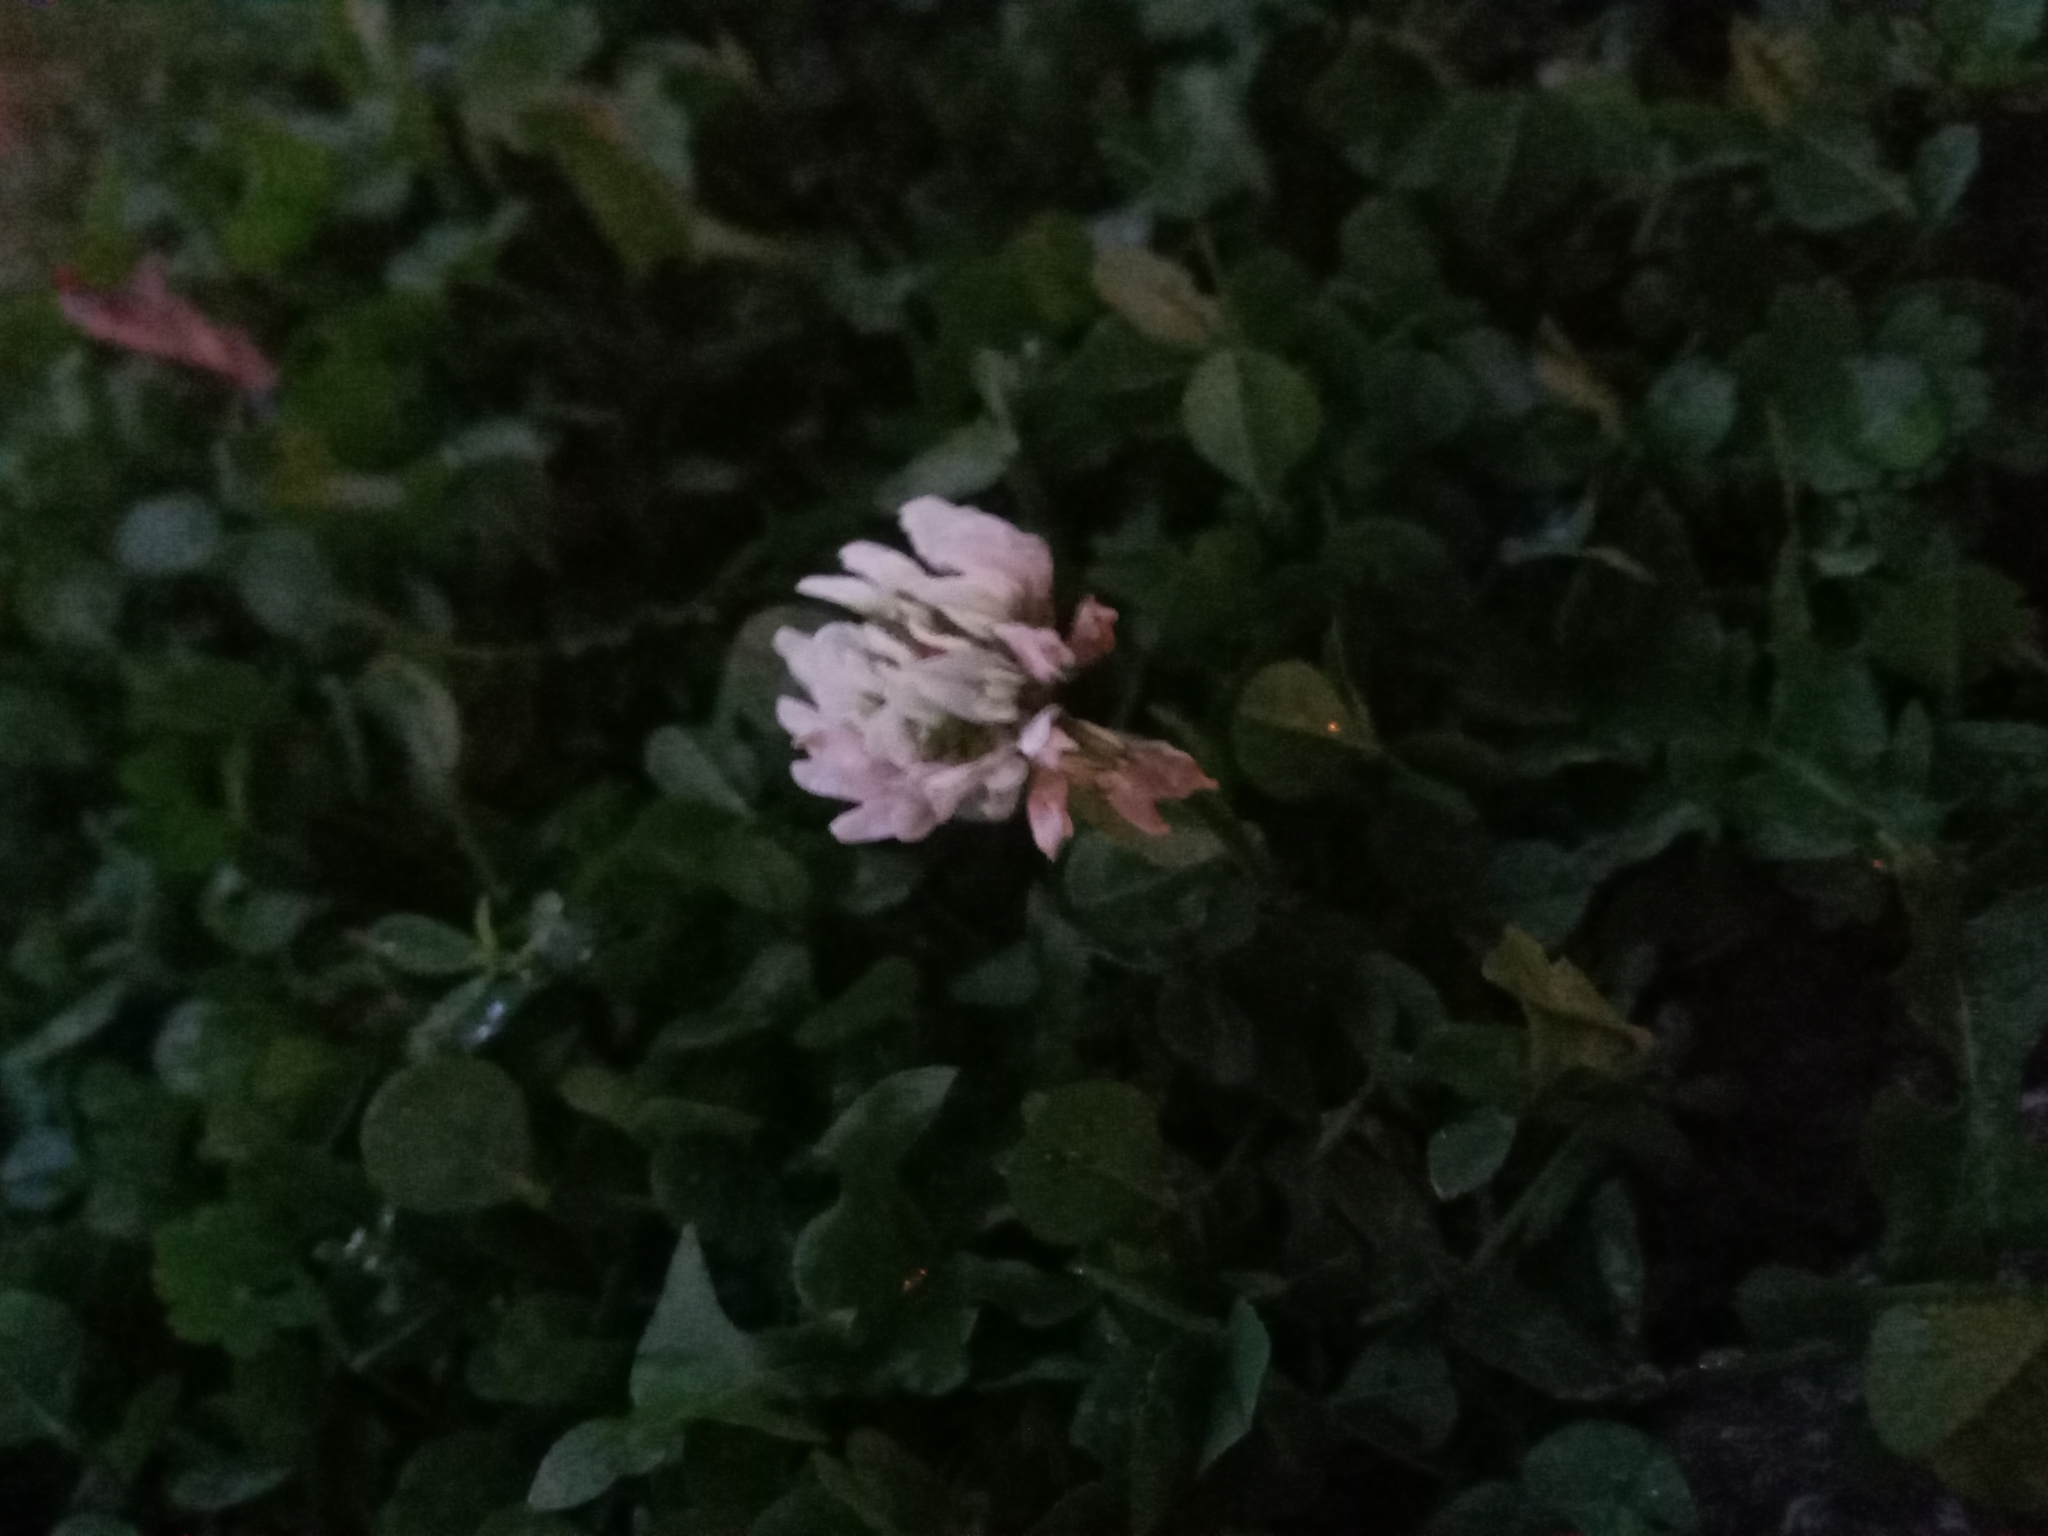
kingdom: Plantae
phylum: Tracheophyta
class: Magnoliopsida
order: Fabales
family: Fabaceae
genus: Trifolium
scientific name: Trifolium repens
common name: White clover
